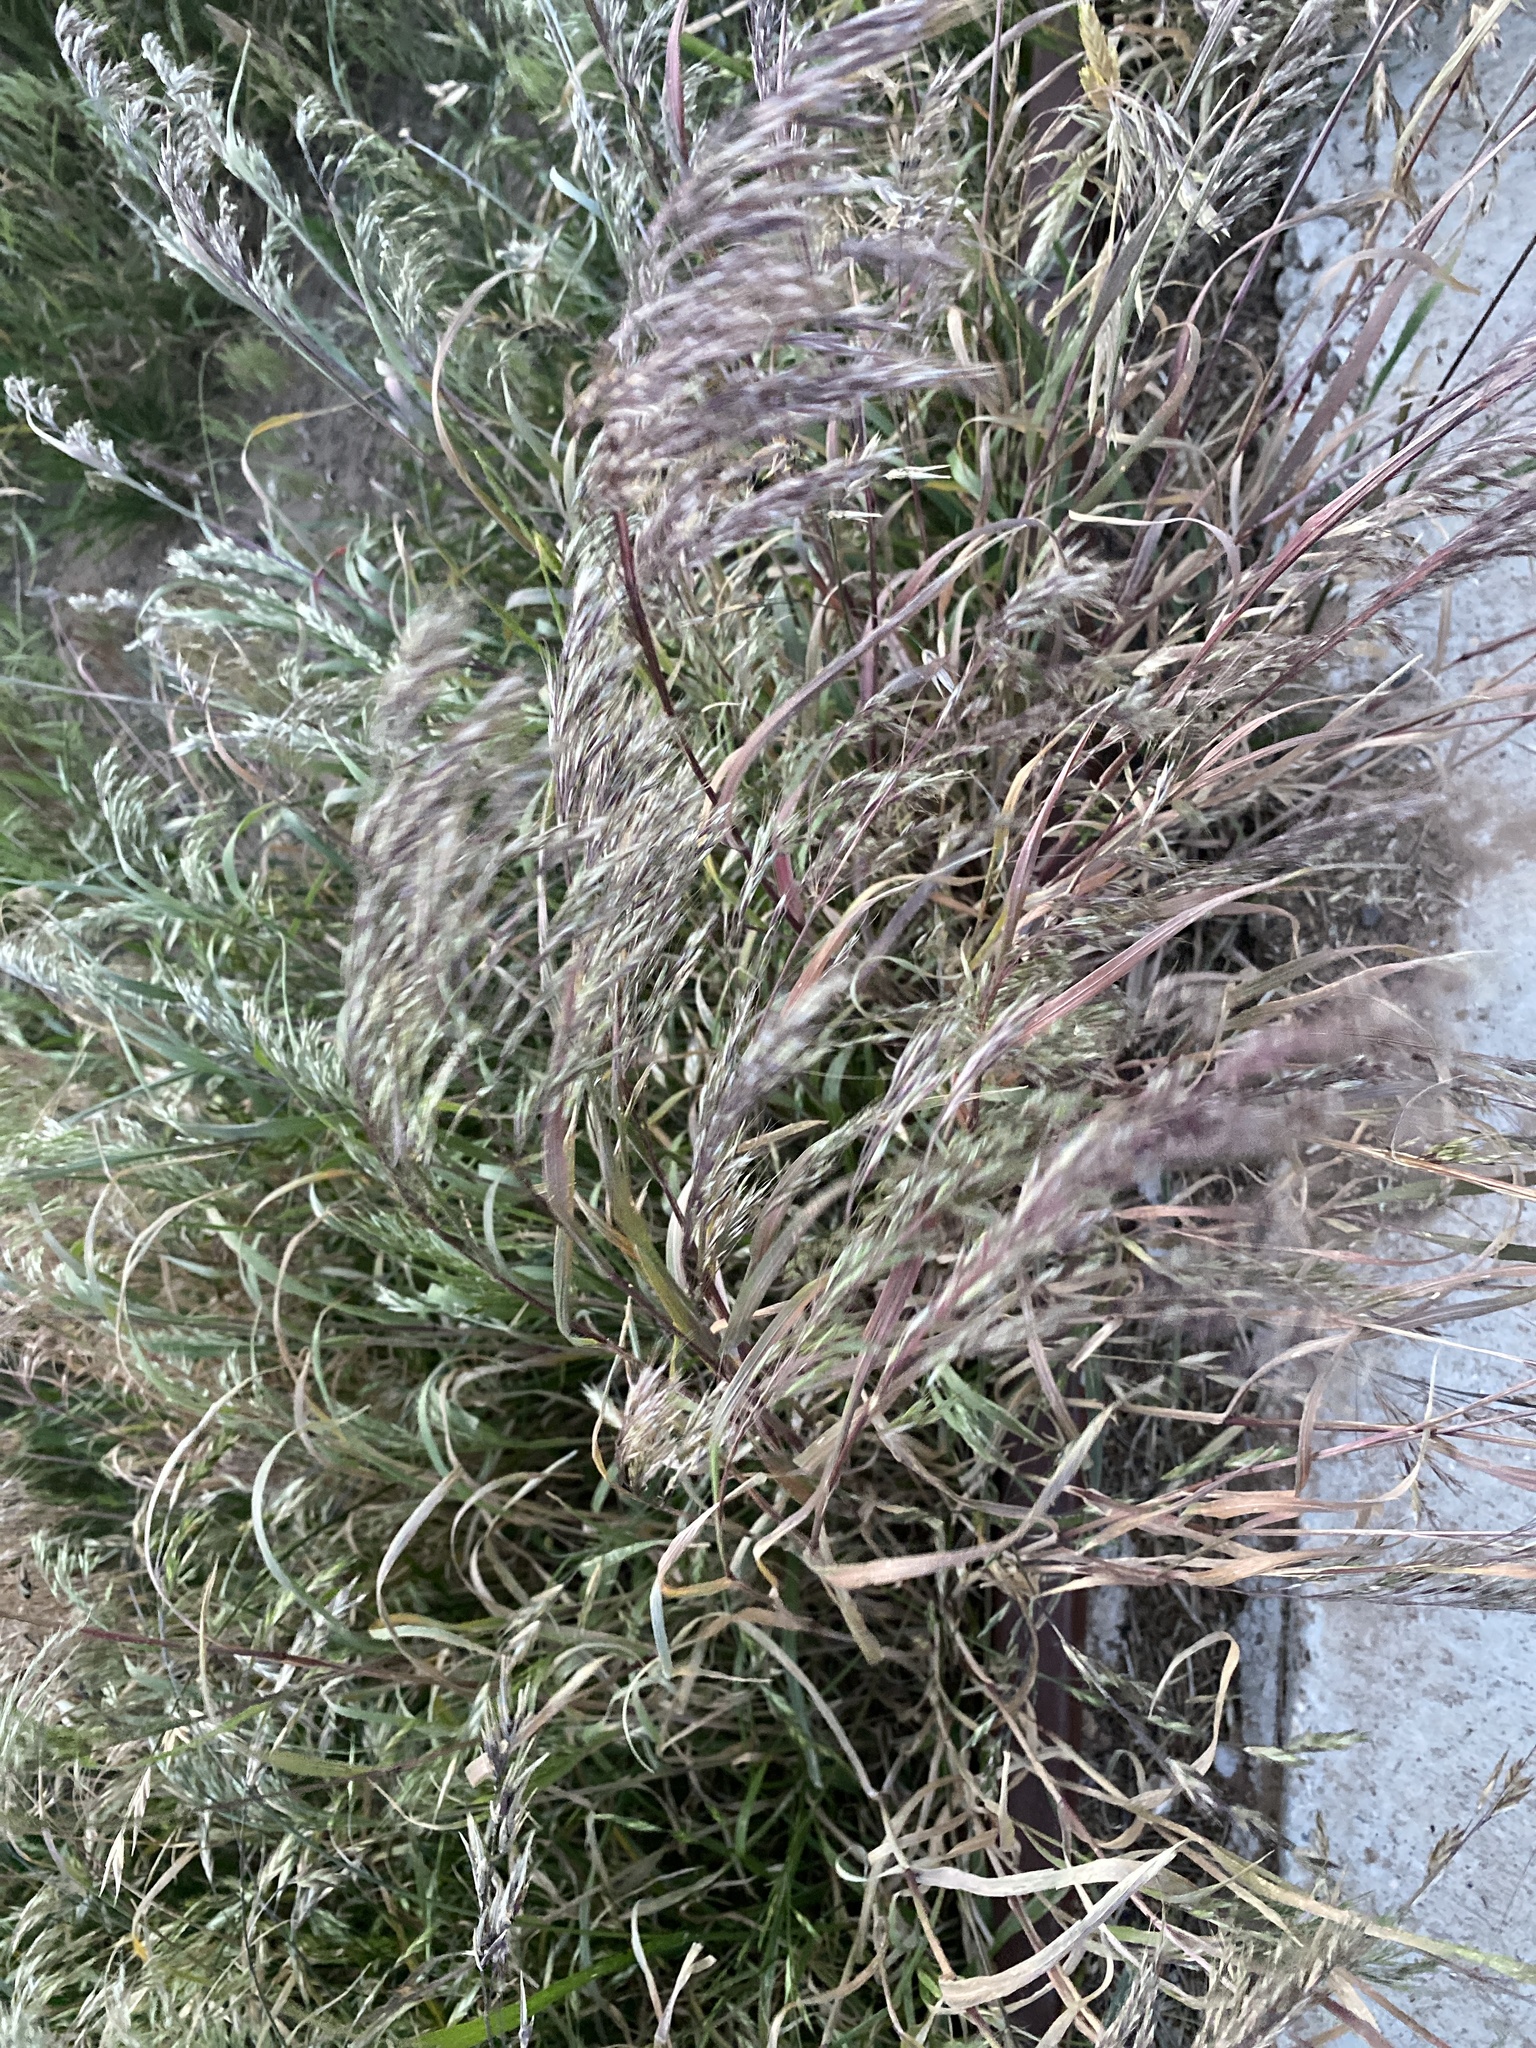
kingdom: Plantae
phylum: Tracheophyta
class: Liliopsida
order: Poales
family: Poaceae
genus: Bromus
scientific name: Bromus tectorum
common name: Cheatgrass
